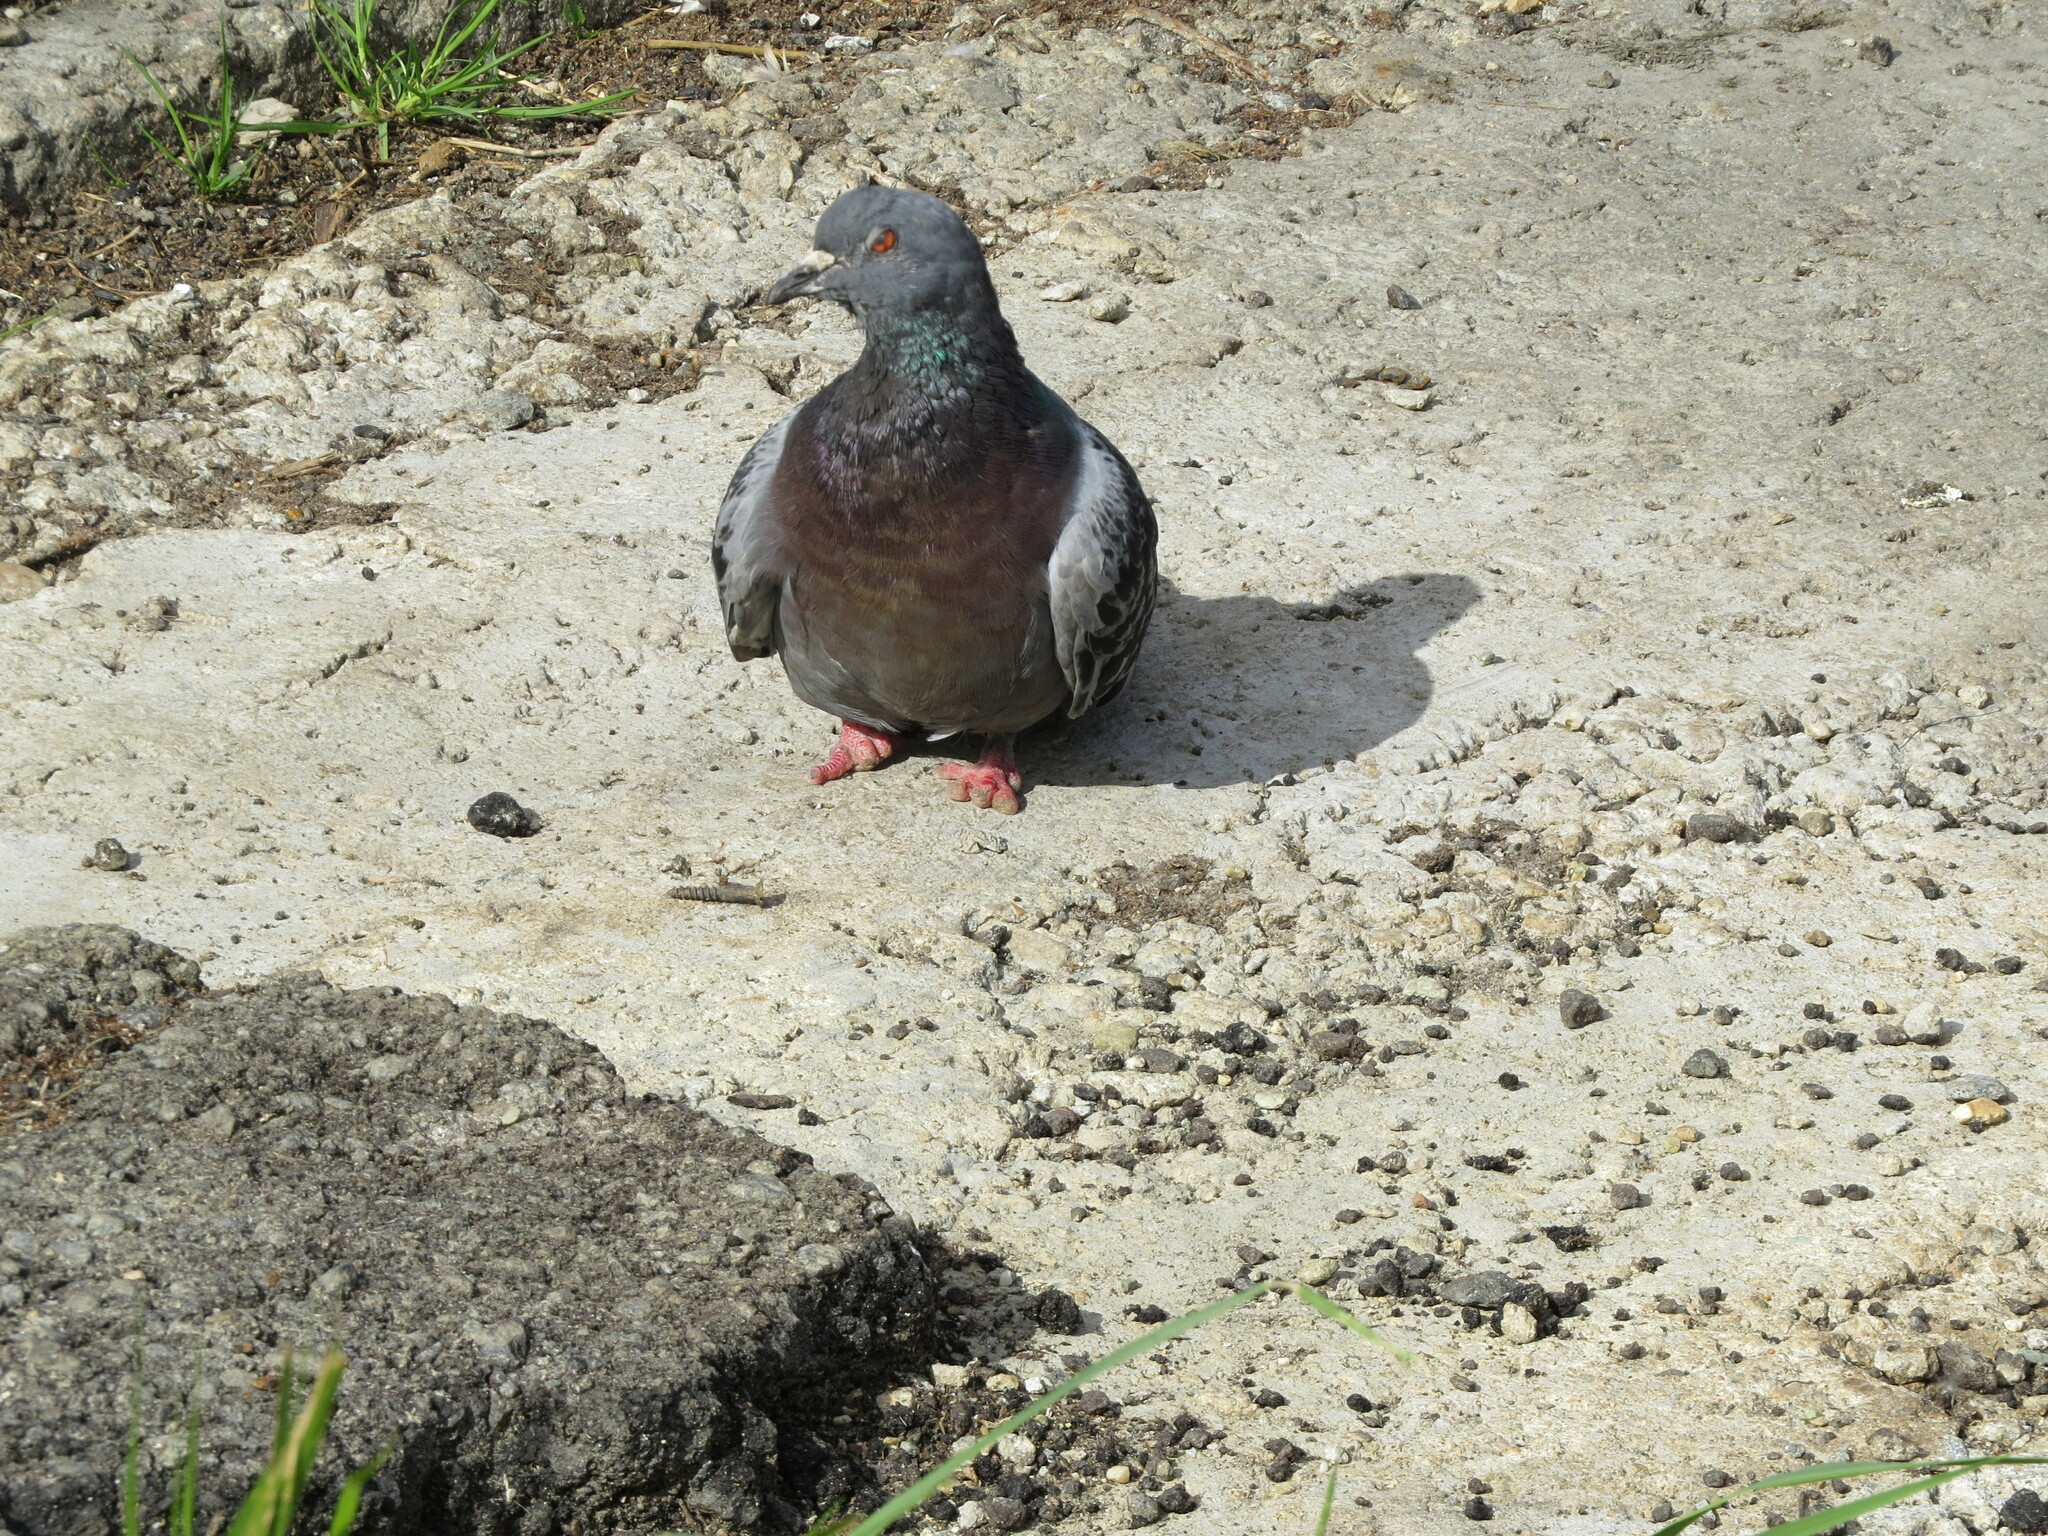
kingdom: Animalia
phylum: Chordata
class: Aves
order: Columbiformes
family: Columbidae
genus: Columba
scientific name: Columba livia
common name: Rock pigeon
